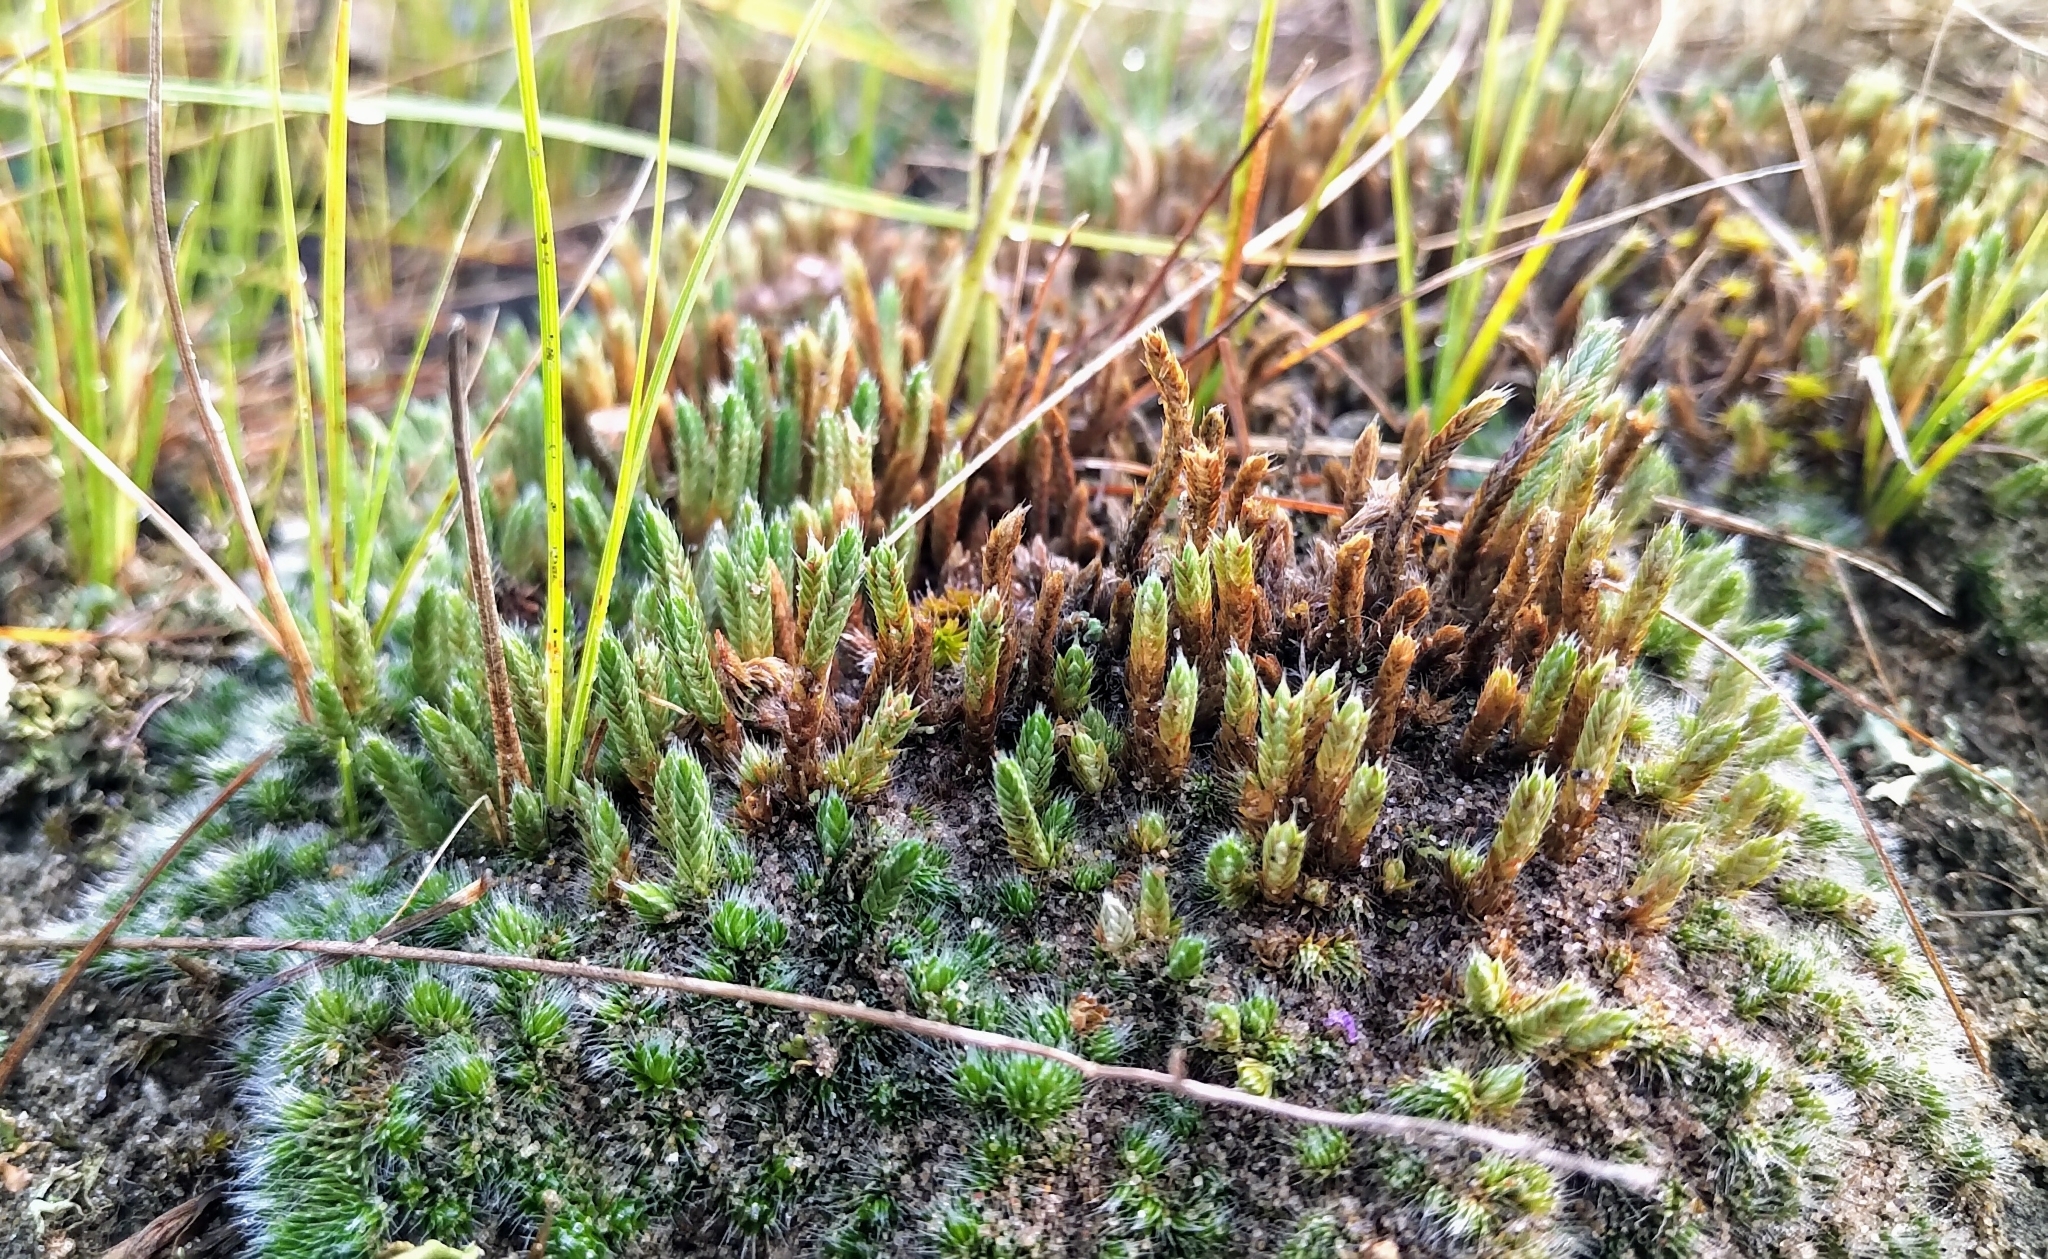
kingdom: Plantae
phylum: Tracheophyta
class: Lycopodiopsida
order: Selaginellales
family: Selaginellaceae
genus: Selaginella
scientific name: Selaginella densa
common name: Mountain spike-moss
